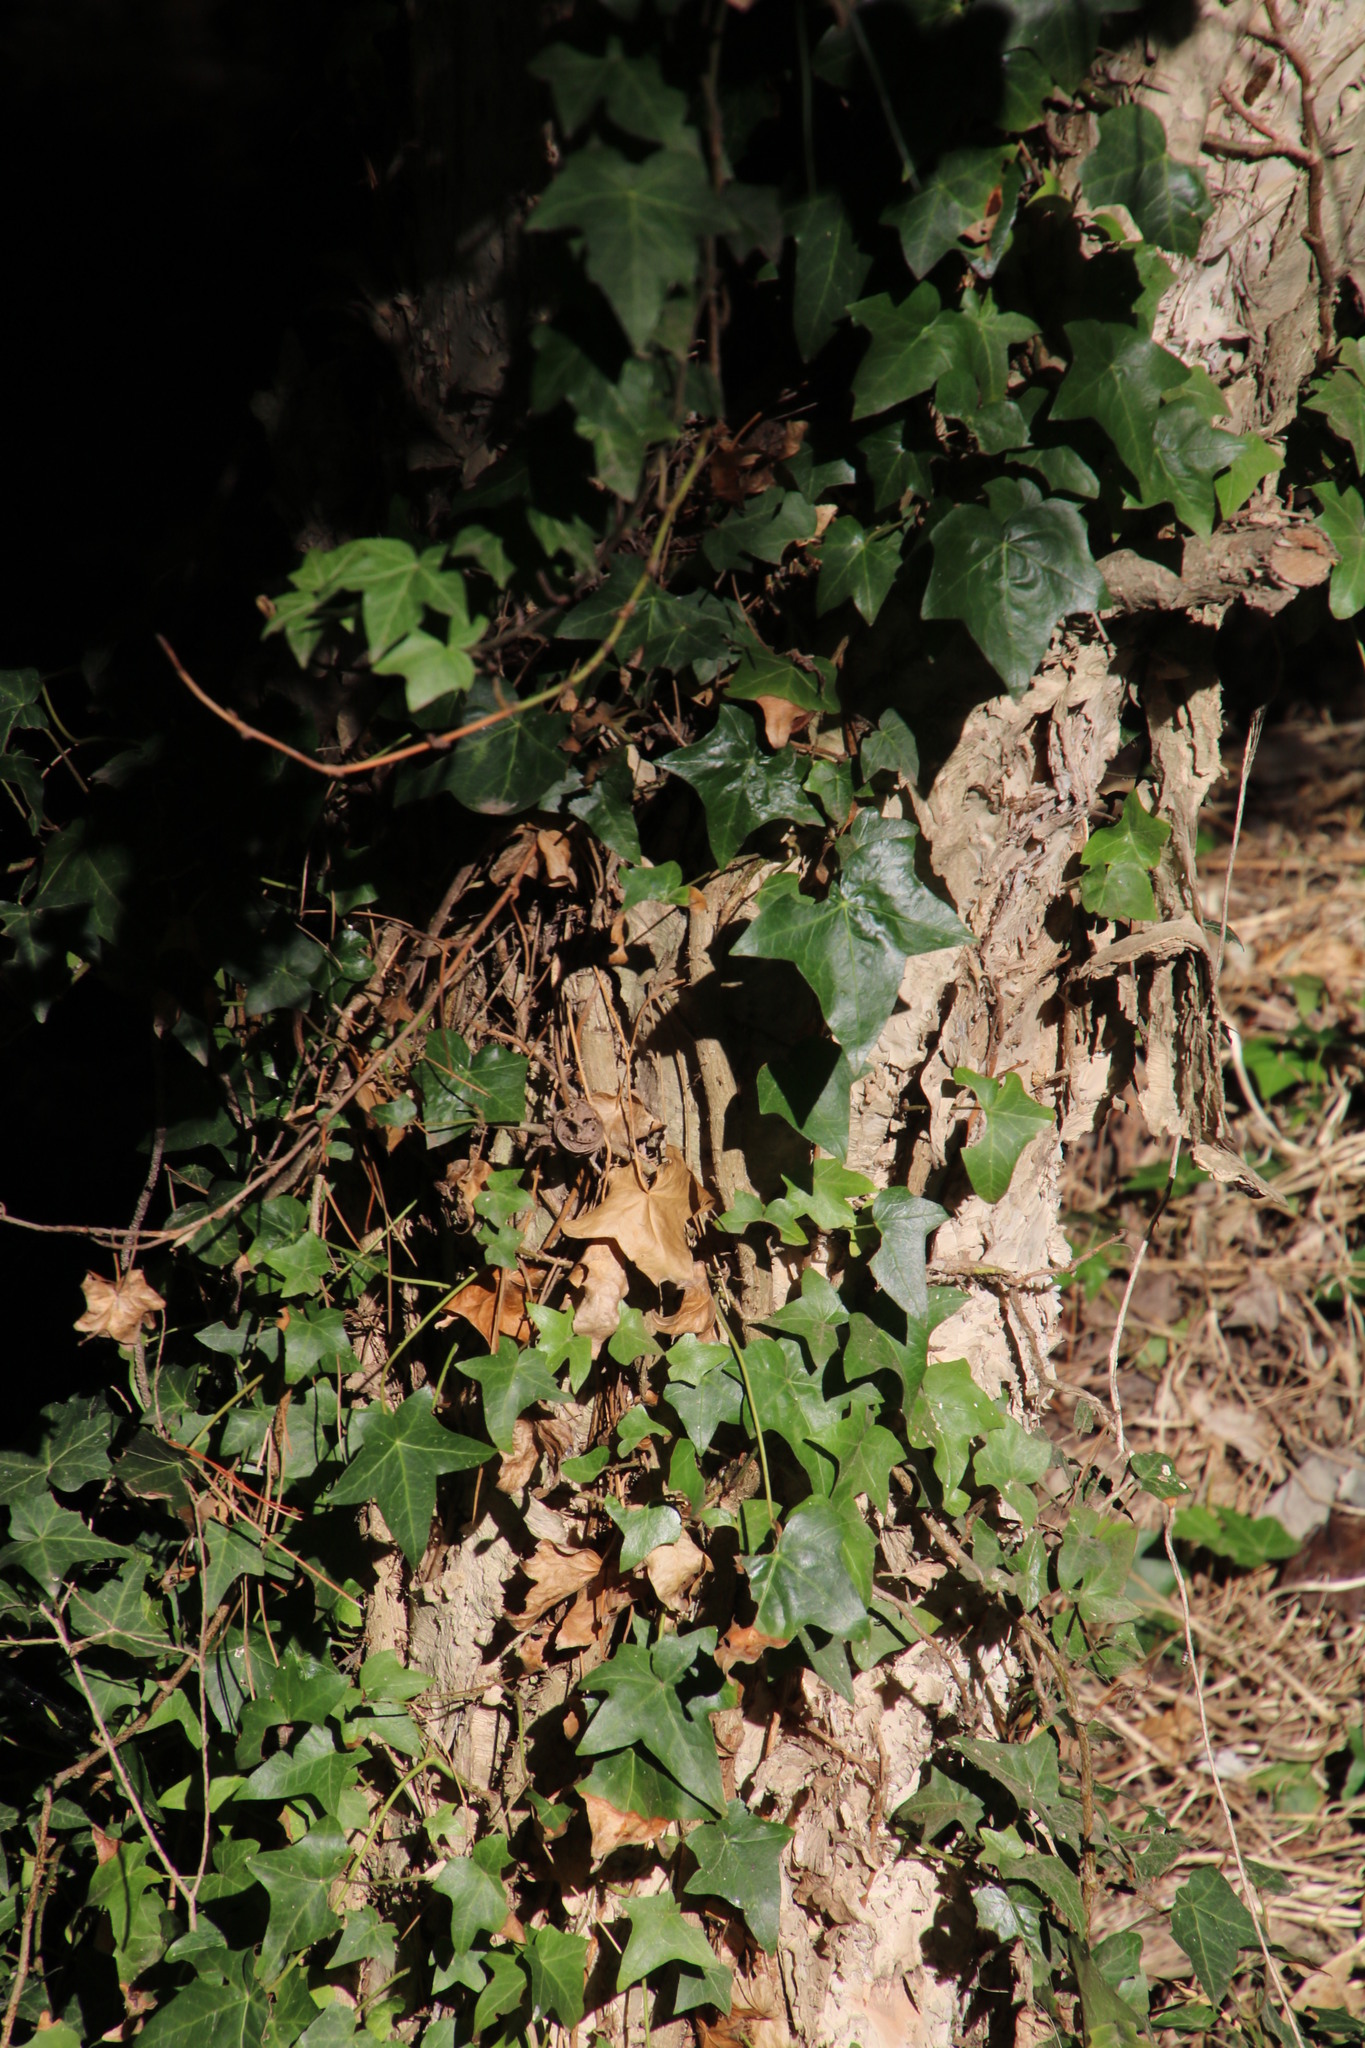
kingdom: Plantae
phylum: Tracheophyta
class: Magnoliopsida
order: Apiales
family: Araliaceae
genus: Hedera
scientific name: Hedera helix
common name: Ivy
